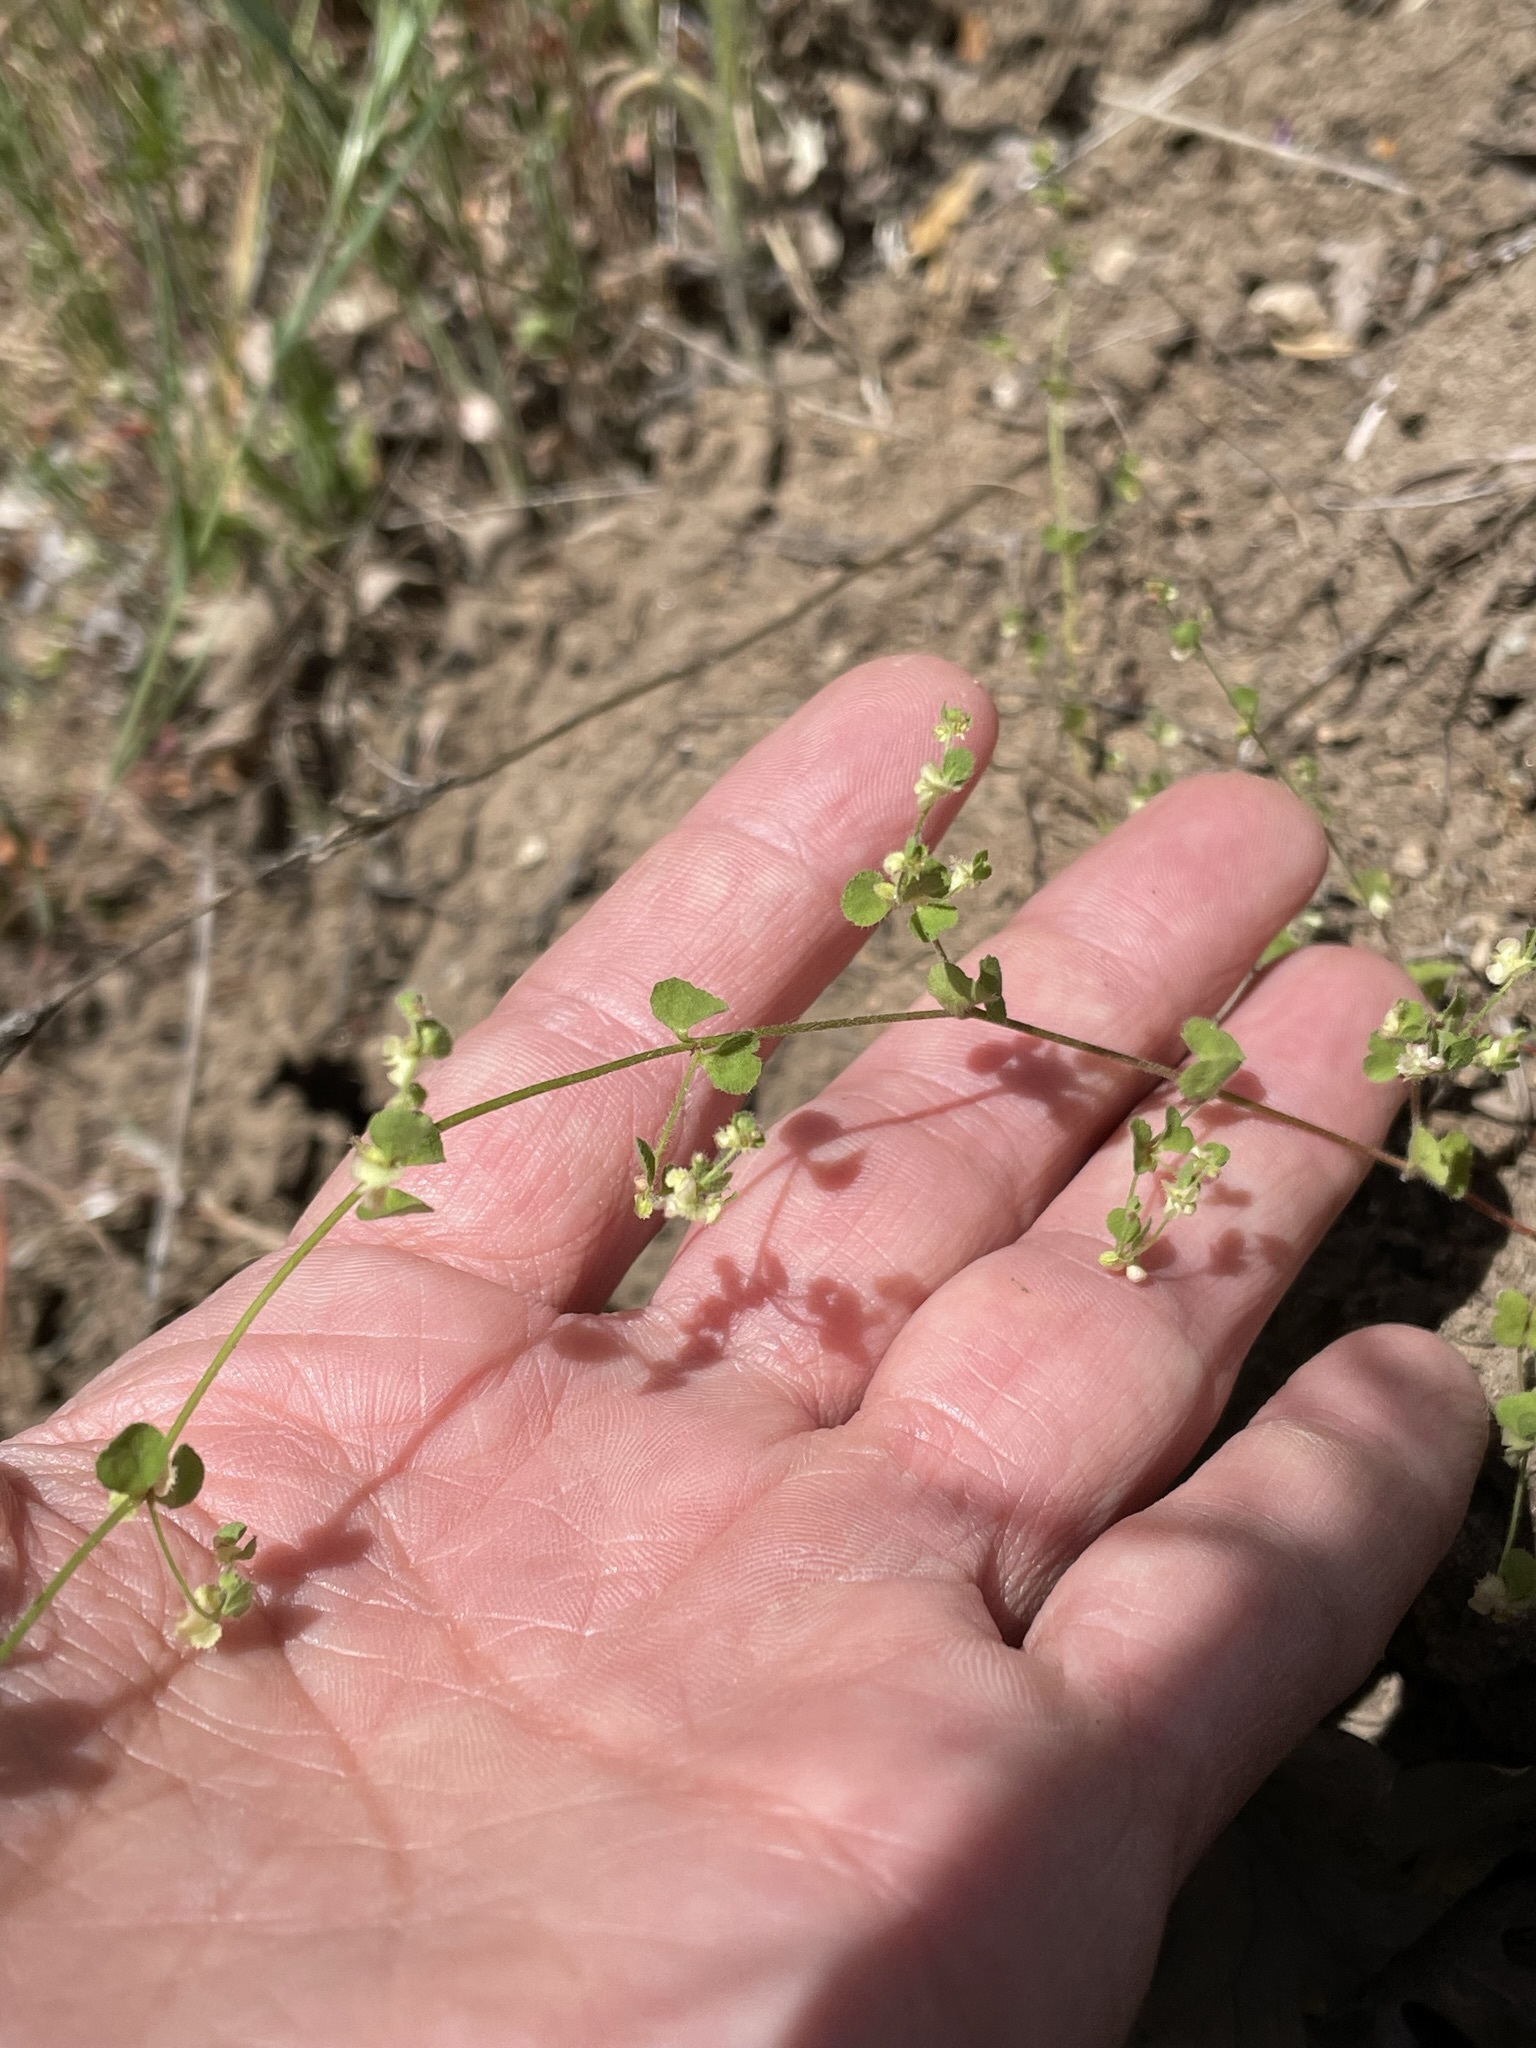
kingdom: Plantae
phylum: Tracheophyta
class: Magnoliopsida
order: Caryophyllales
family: Polygonaceae
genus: Pterostegia
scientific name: Pterostegia drymarioides
